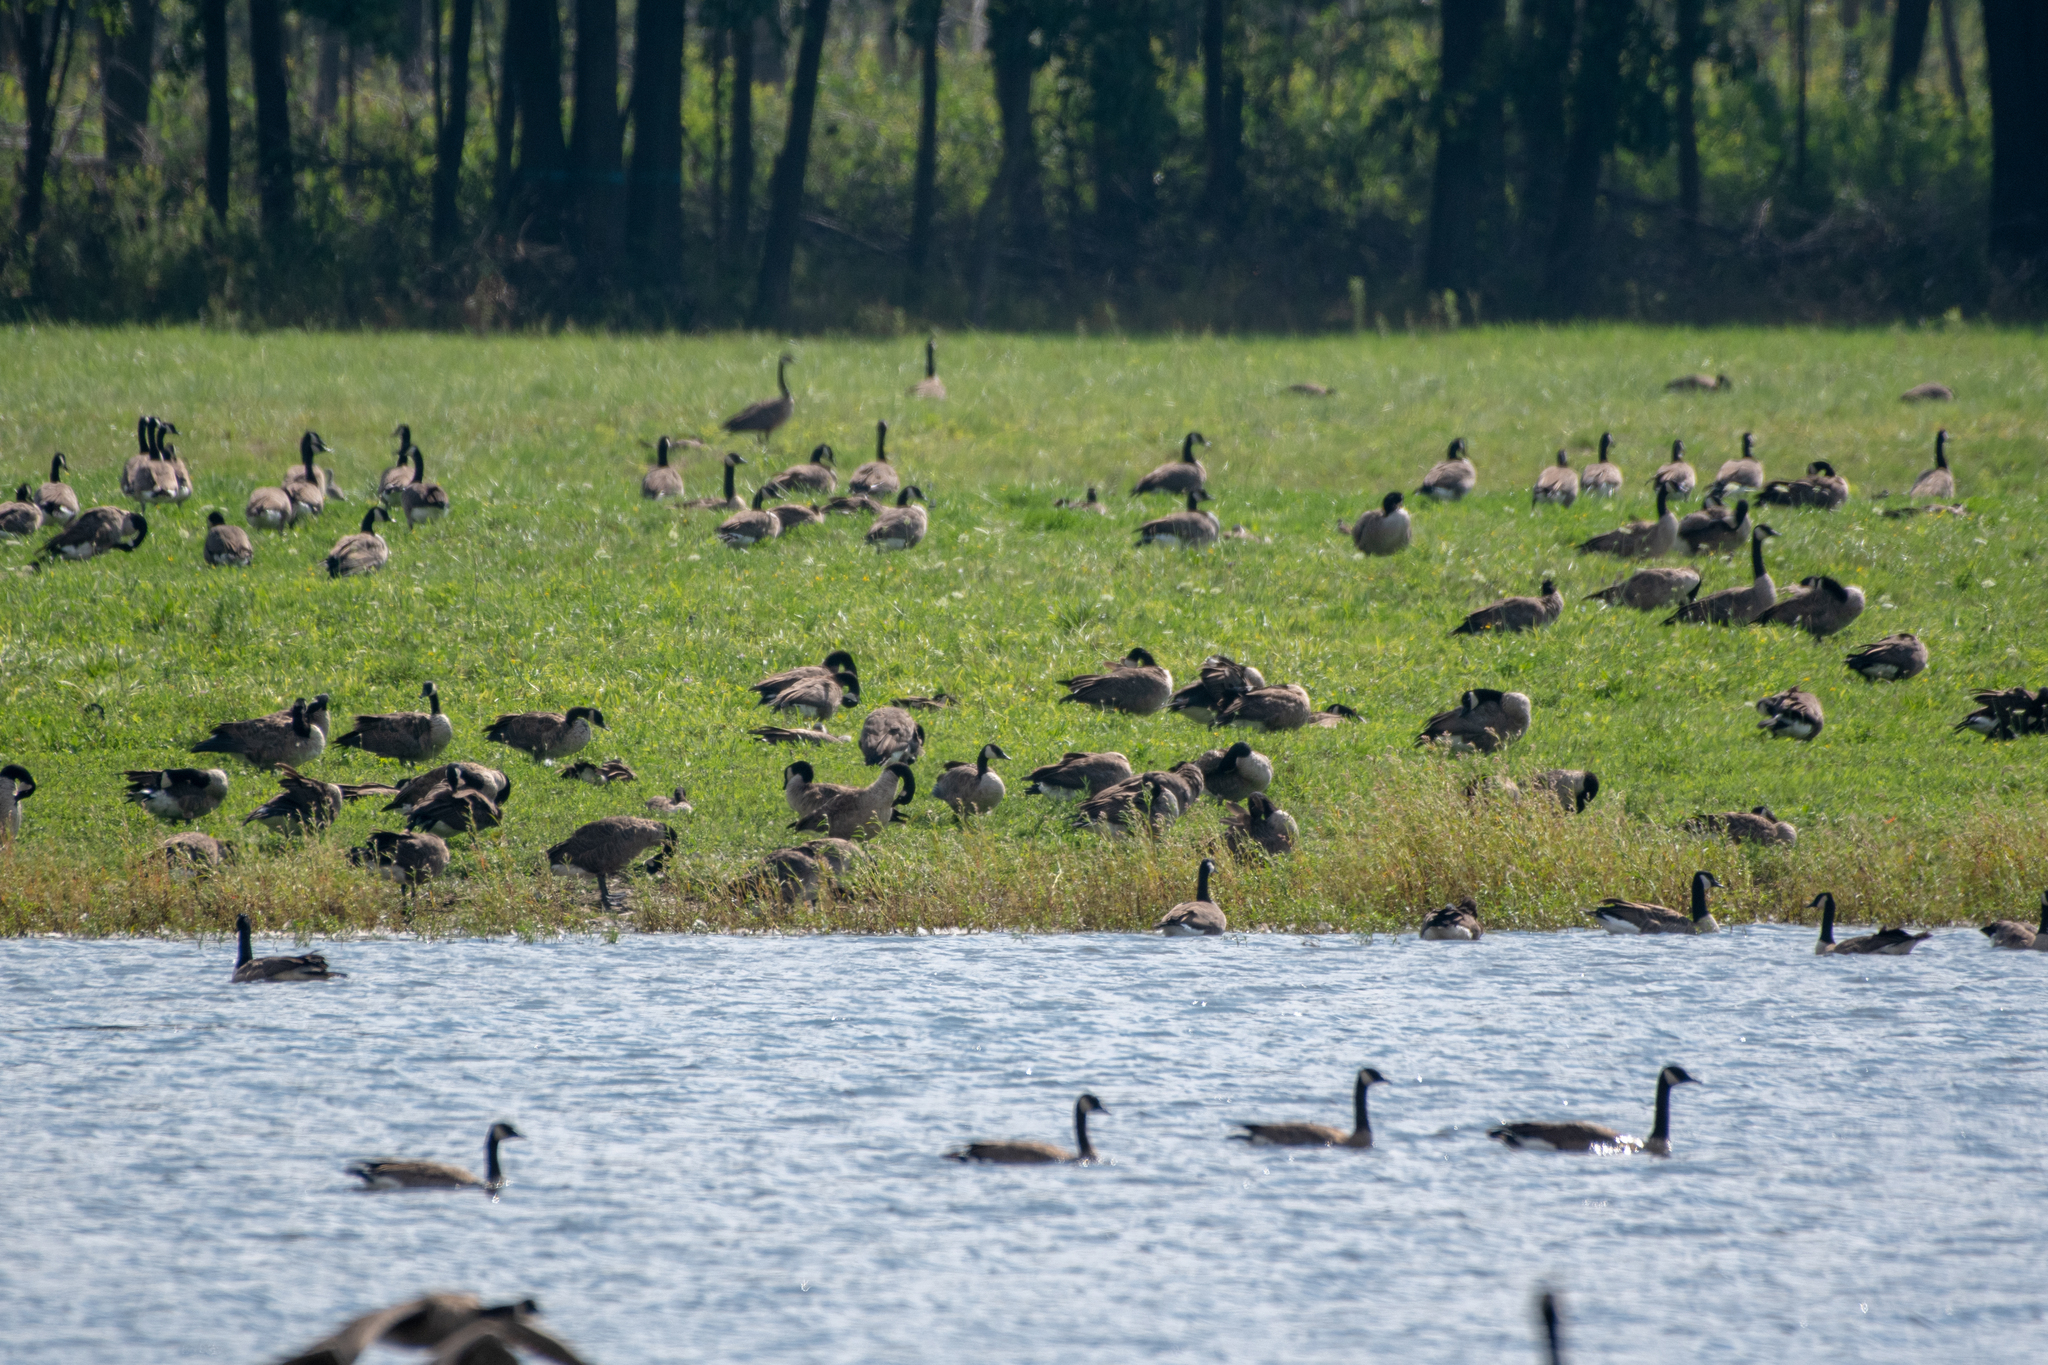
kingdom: Animalia
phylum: Chordata
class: Aves
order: Anseriformes
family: Anatidae
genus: Branta
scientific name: Branta canadensis
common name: Canada goose
